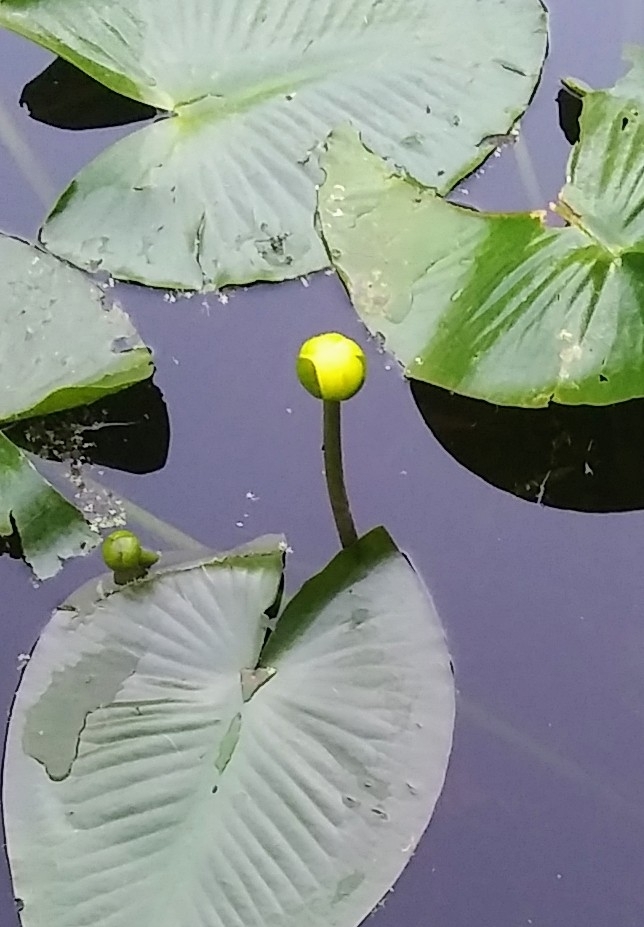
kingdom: Plantae
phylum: Tracheophyta
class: Magnoliopsida
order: Nymphaeales
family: Nymphaeaceae
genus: Nuphar
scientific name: Nuphar advena
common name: Spatter-dock
